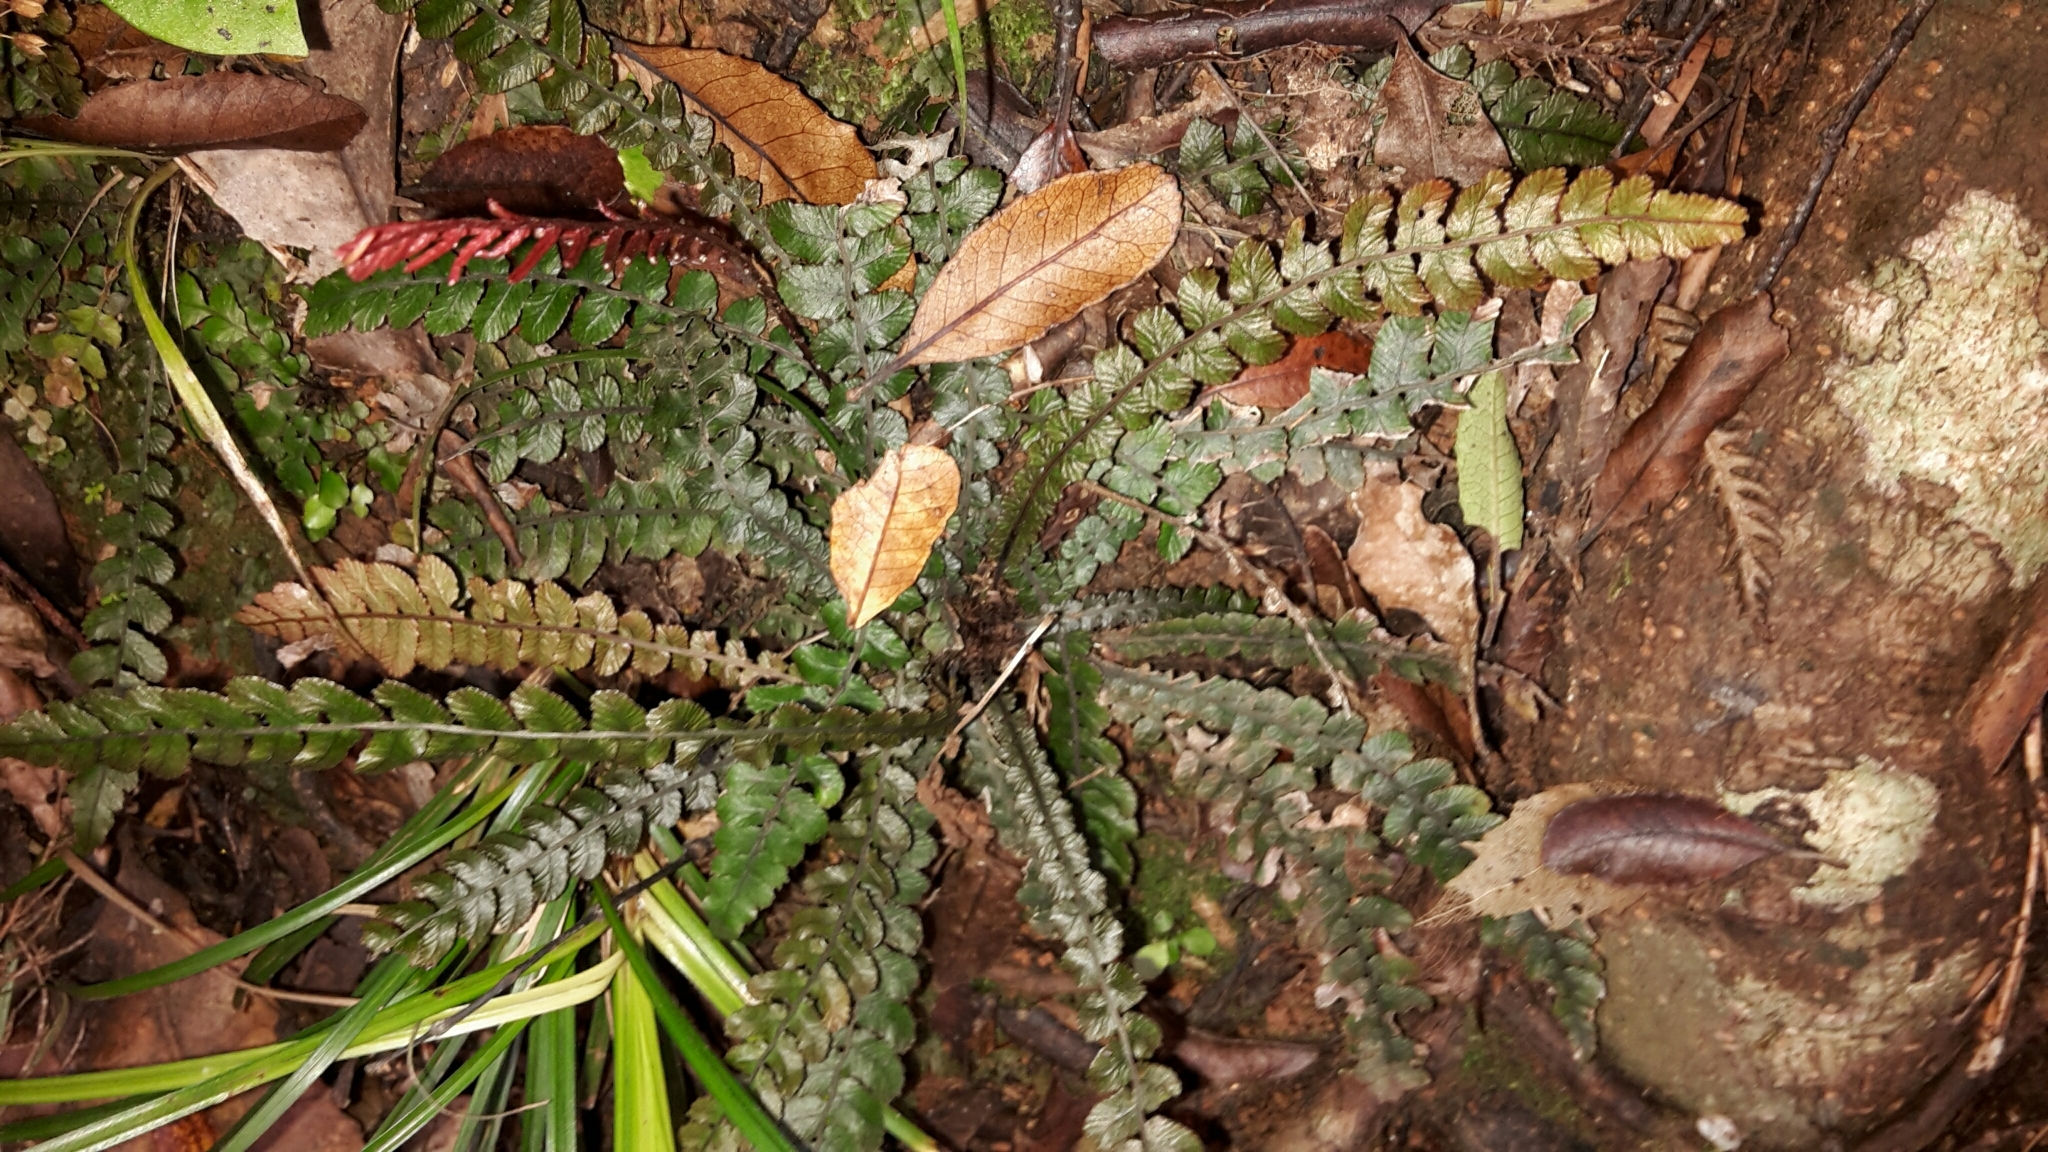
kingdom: Plantae
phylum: Tracheophyta
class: Polypodiopsida
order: Polypodiales
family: Blechnaceae
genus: Austroblechnum
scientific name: Austroblechnum membranaceum
